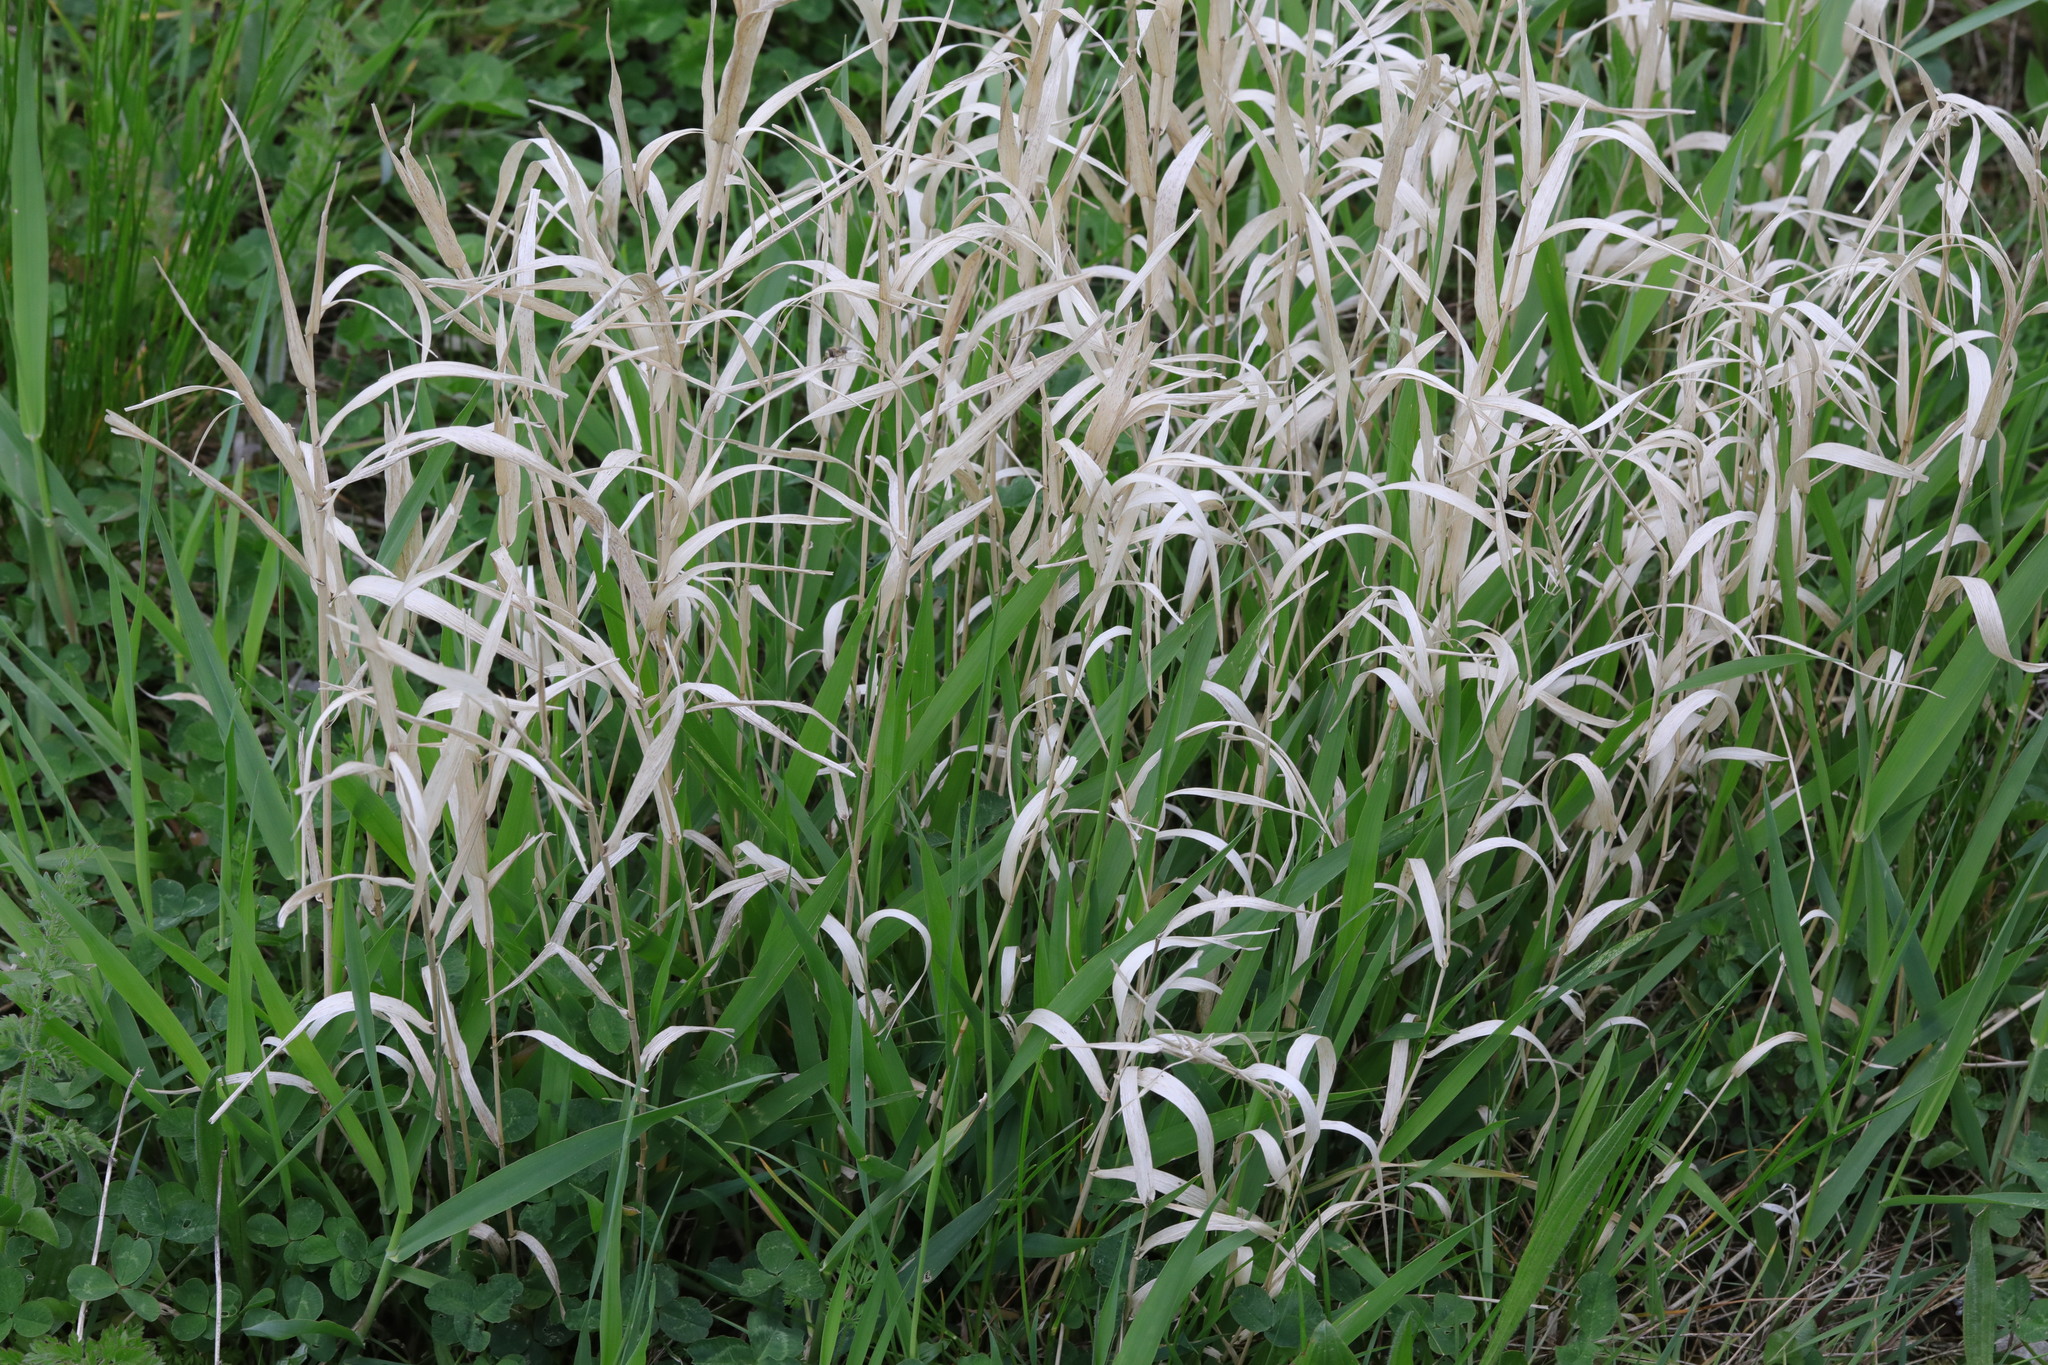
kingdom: Plantae
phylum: Tracheophyta
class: Liliopsida
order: Poales
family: Poaceae
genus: Phalaris
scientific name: Phalaris arundinacea
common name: Reed canary-grass
